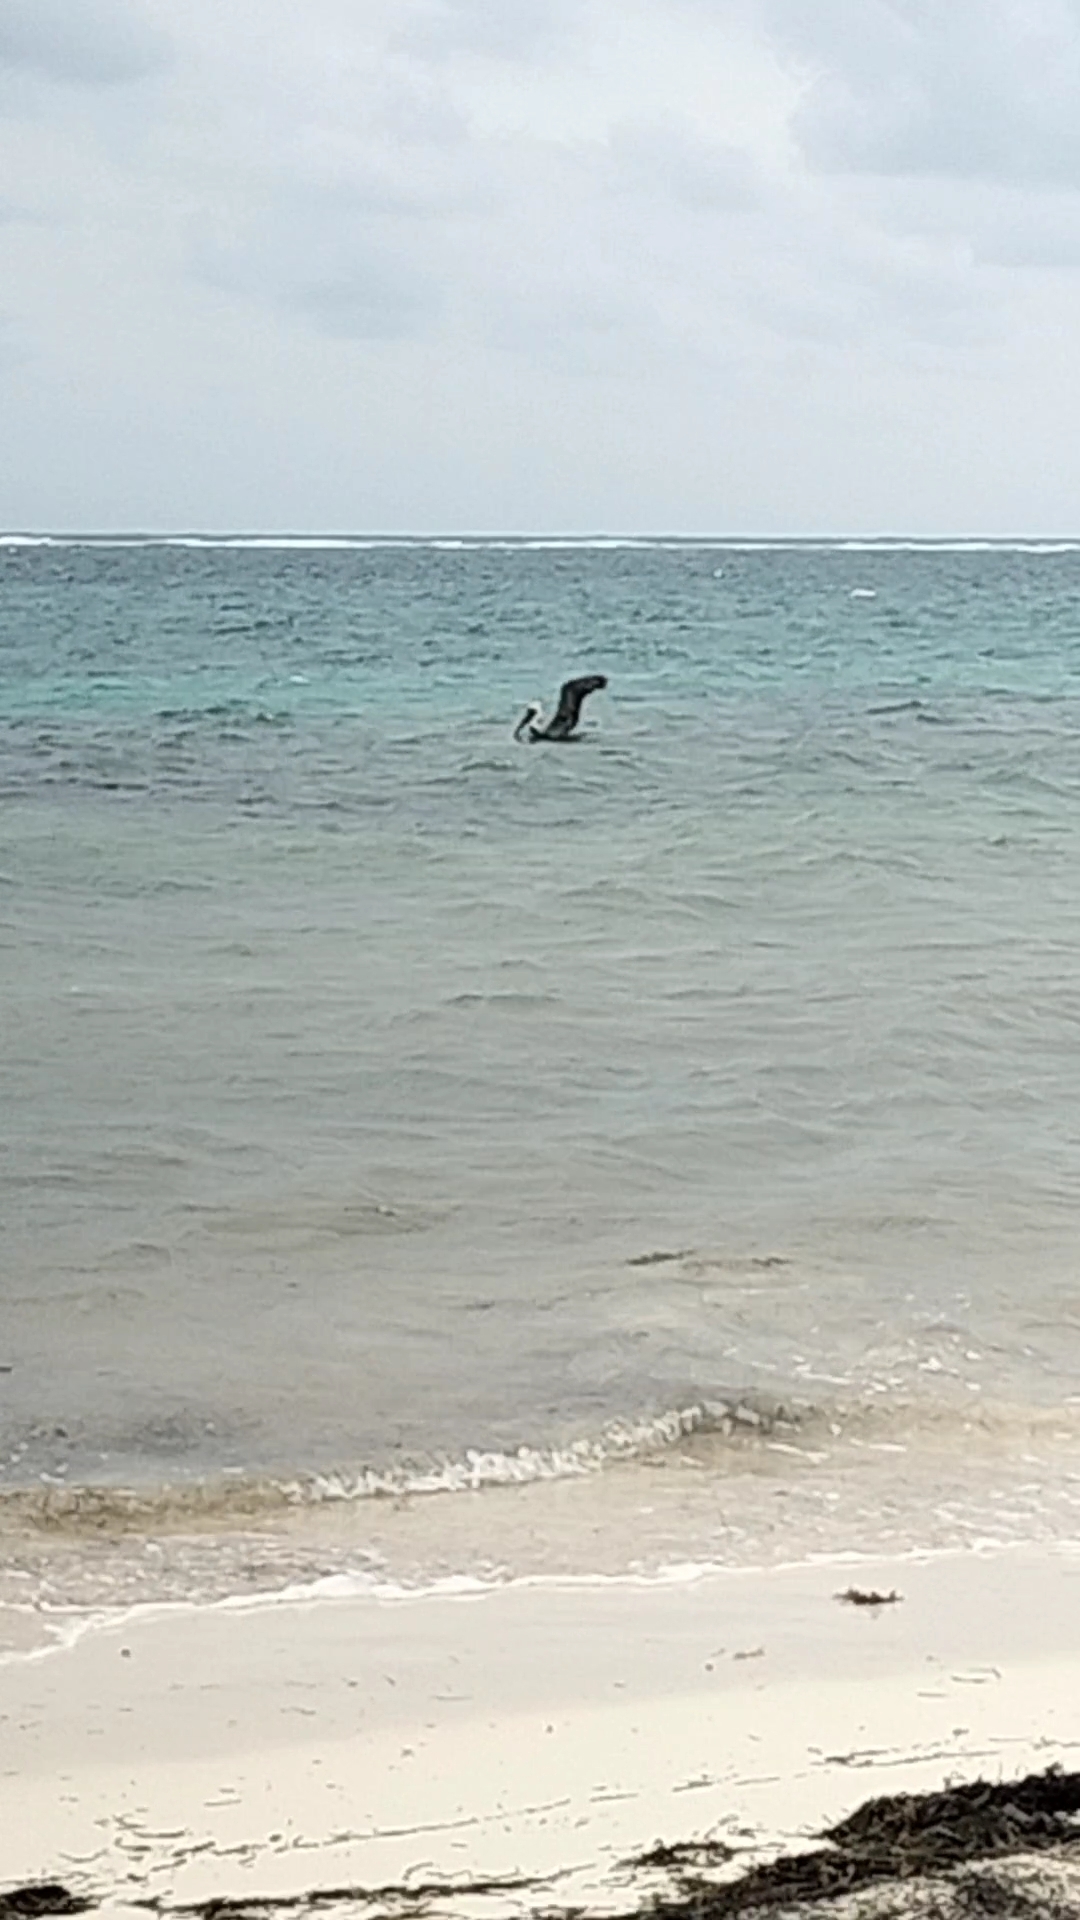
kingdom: Animalia
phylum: Chordata
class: Aves
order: Pelecaniformes
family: Pelecanidae
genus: Pelecanus
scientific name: Pelecanus occidentalis
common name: Brown pelican
